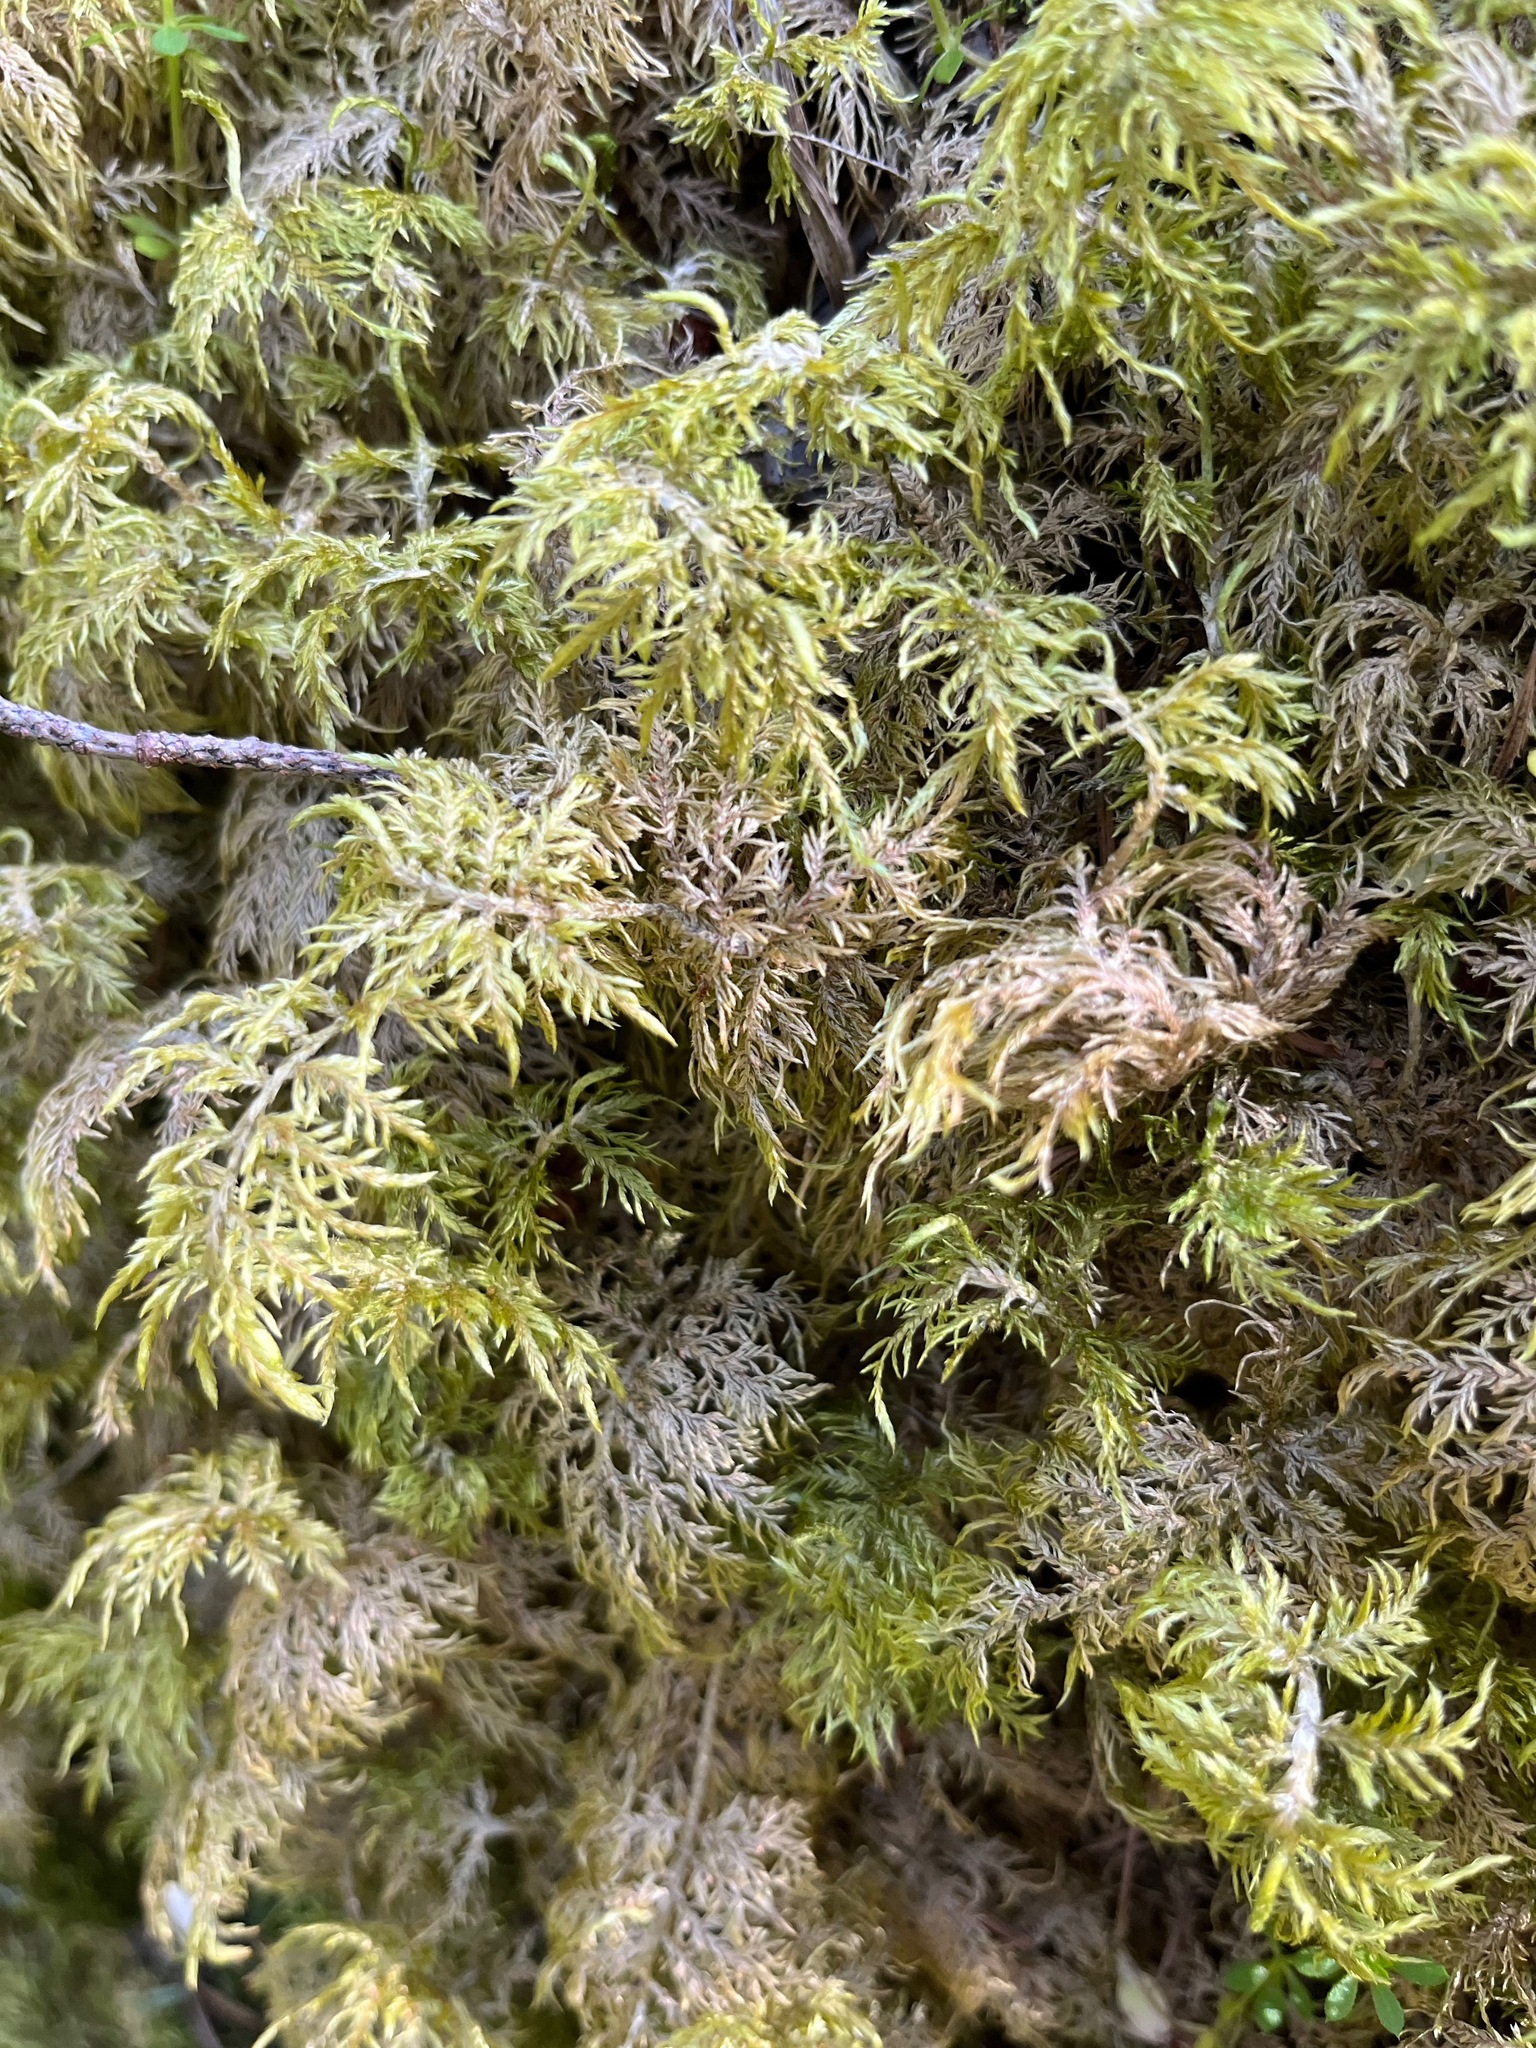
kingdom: Plantae
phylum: Bryophyta
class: Bryopsida
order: Hypnales
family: Hylocomiaceae
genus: Hylocomium
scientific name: Hylocomium splendens
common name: Stairstep moss
